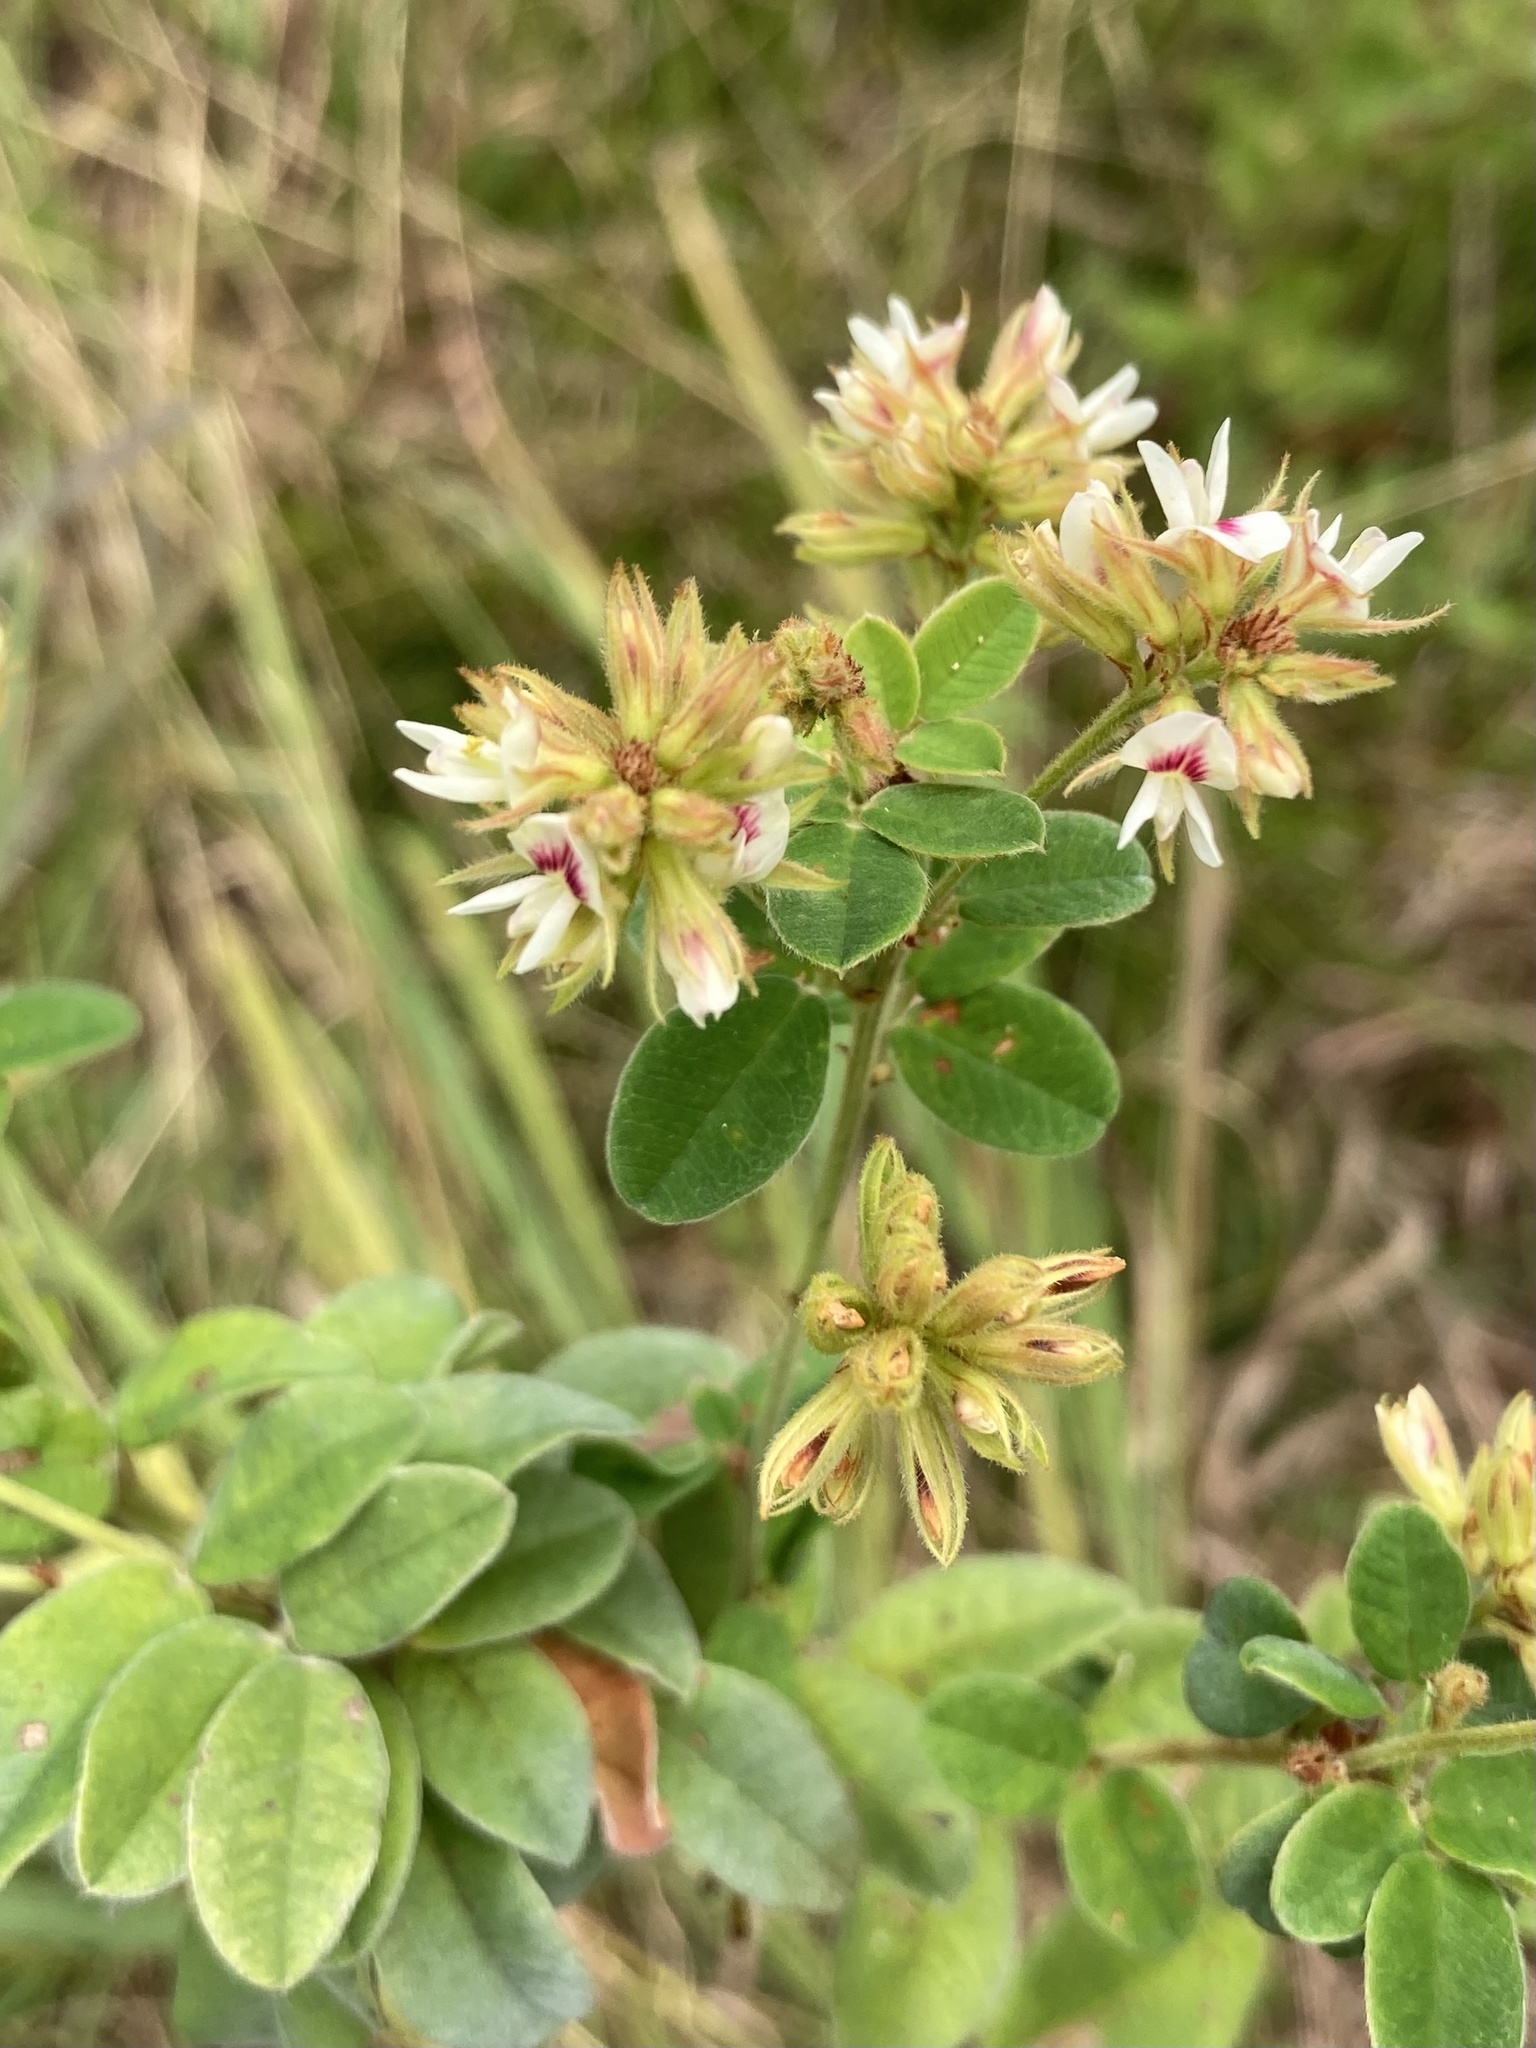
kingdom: Plantae
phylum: Tracheophyta
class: Magnoliopsida
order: Fabales
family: Fabaceae
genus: Lespedeza
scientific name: Lespedeza hirta
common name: Hairy lespedeza
